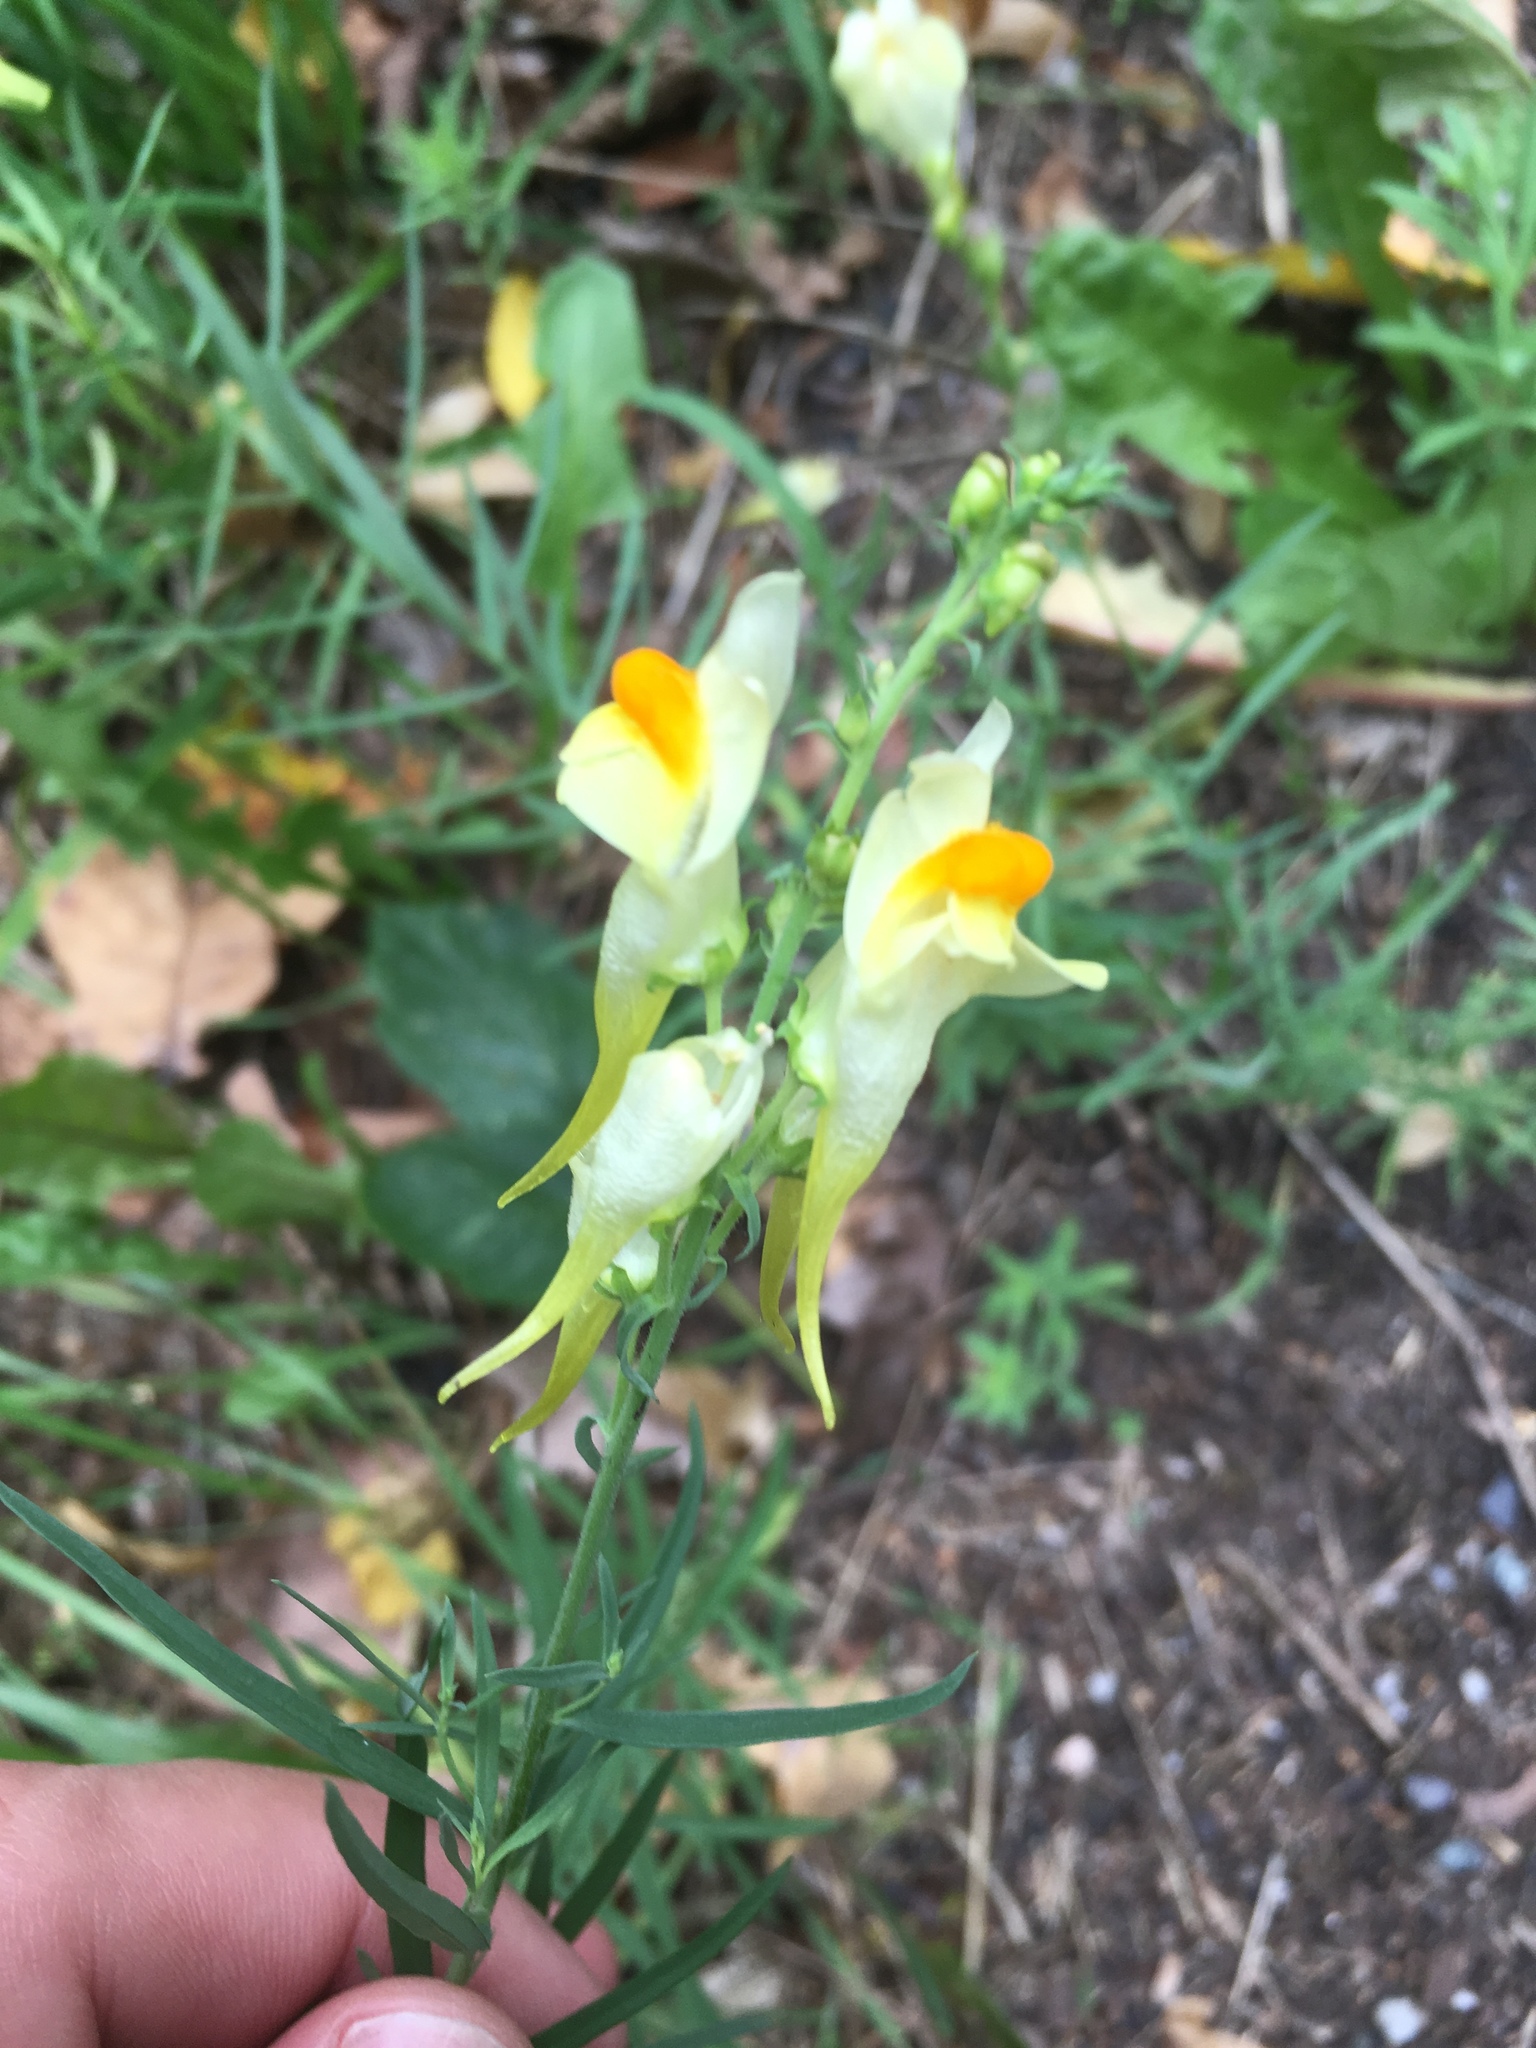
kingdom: Plantae
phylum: Tracheophyta
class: Magnoliopsida
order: Lamiales
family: Plantaginaceae
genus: Linaria
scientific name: Linaria vulgaris
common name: Butter and eggs
